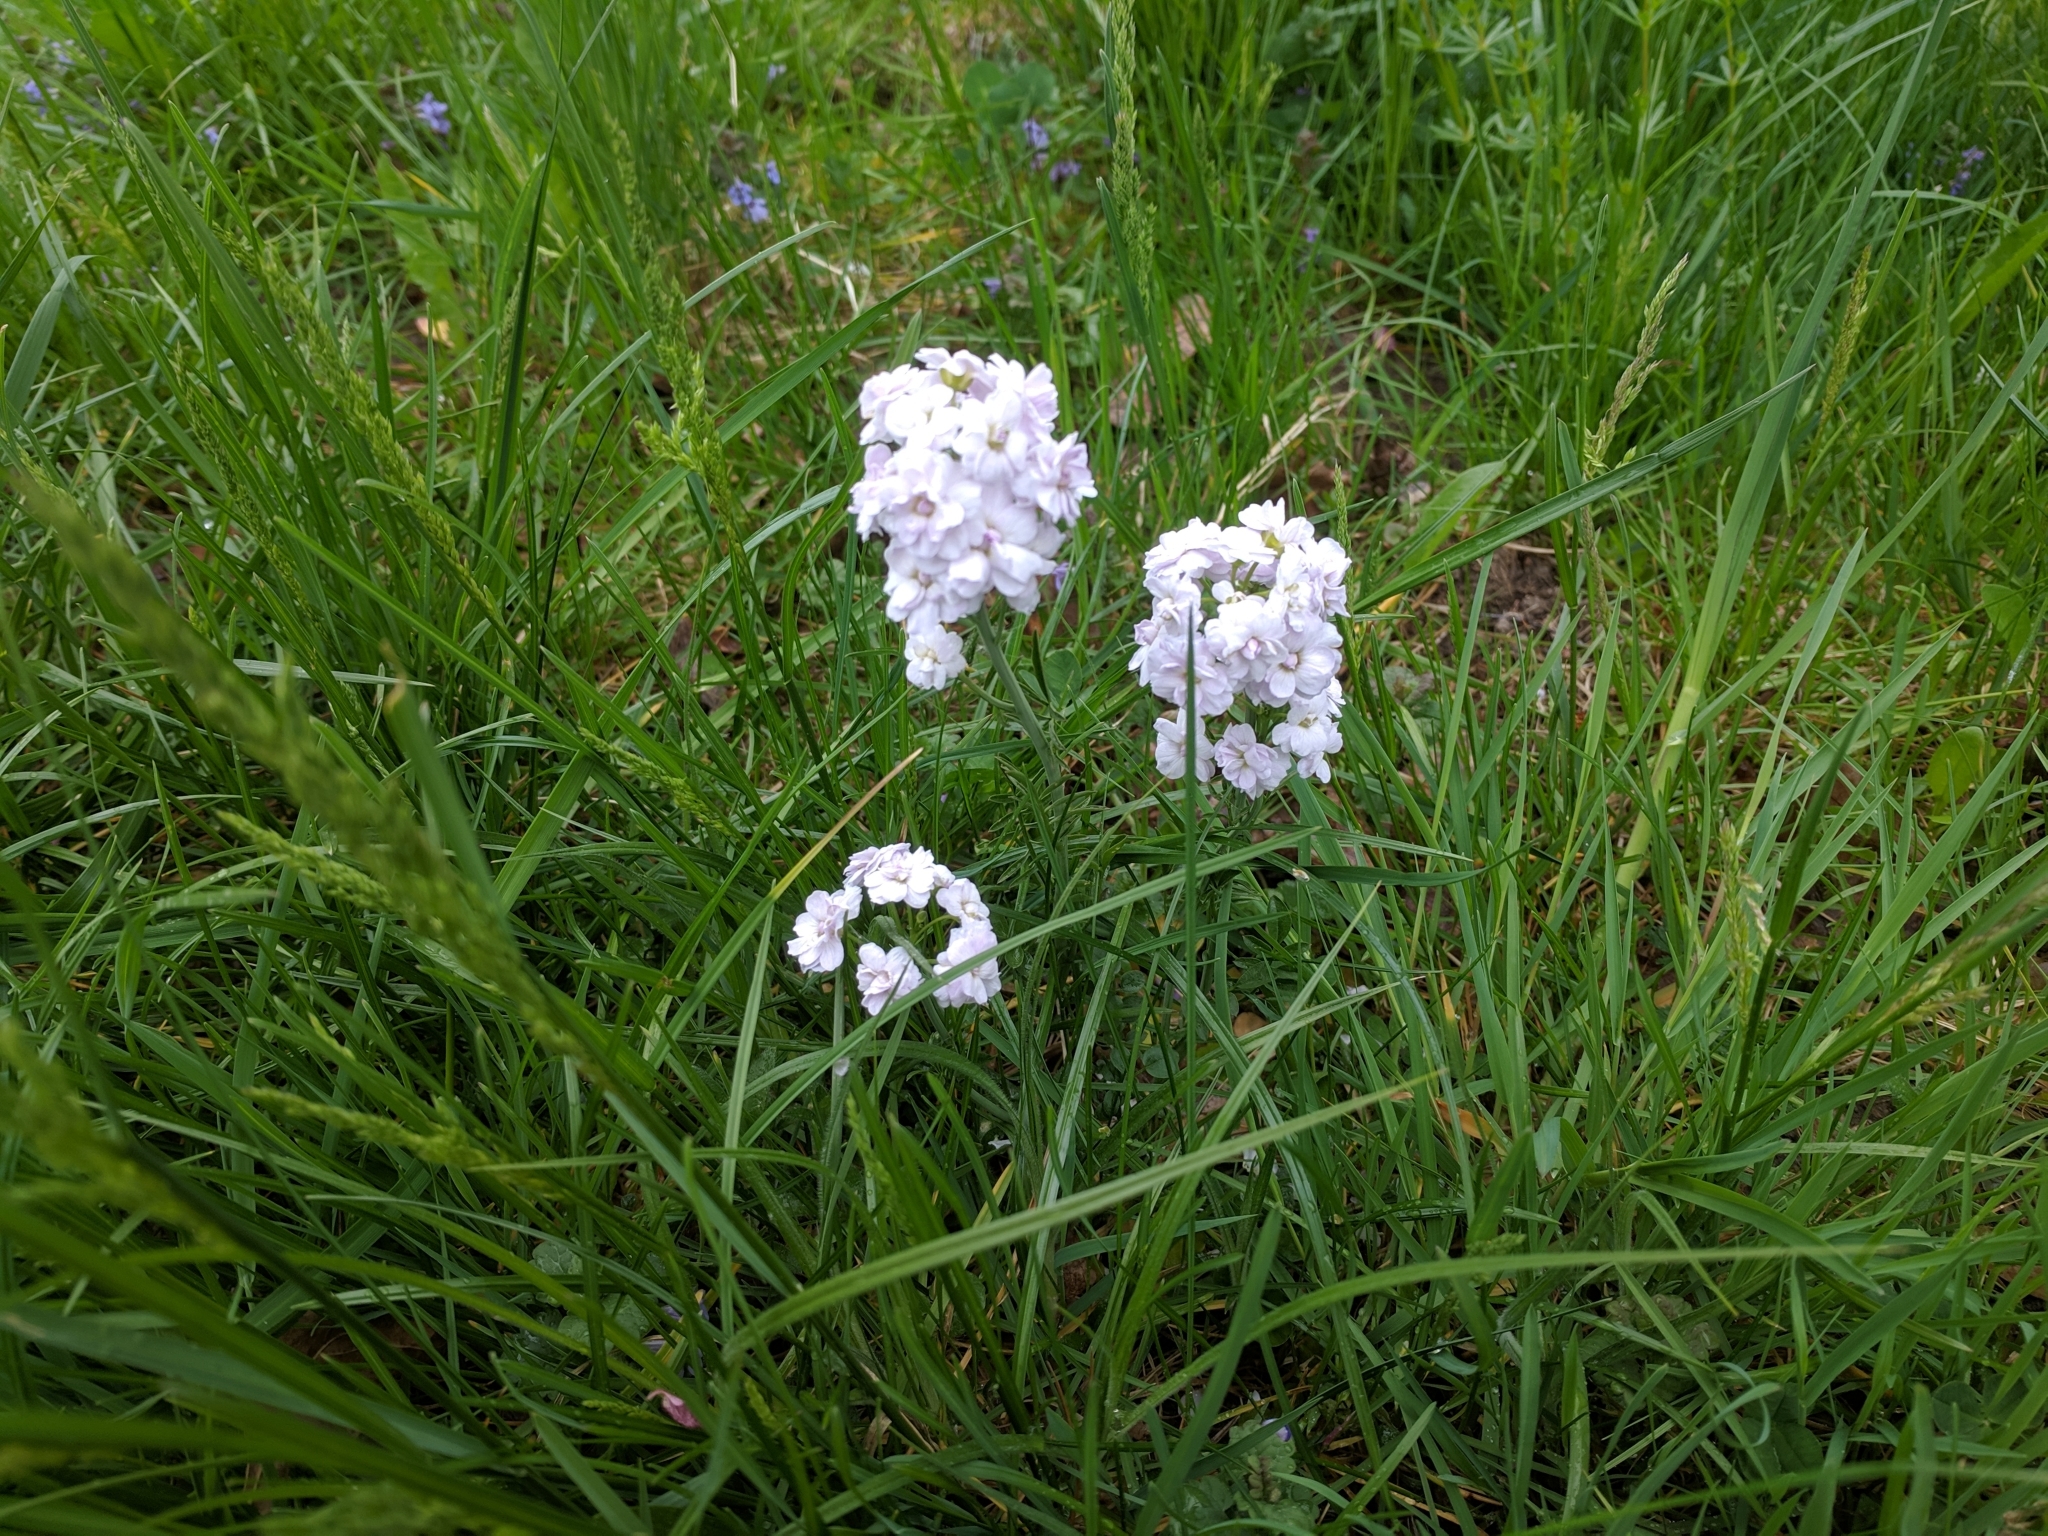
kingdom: Plantae
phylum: Tracheophyta
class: Magnoliopsida
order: Brassicales
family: Brassicaceae
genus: Cardamine
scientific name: Cardamine pratensis
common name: Cuckoo flower
